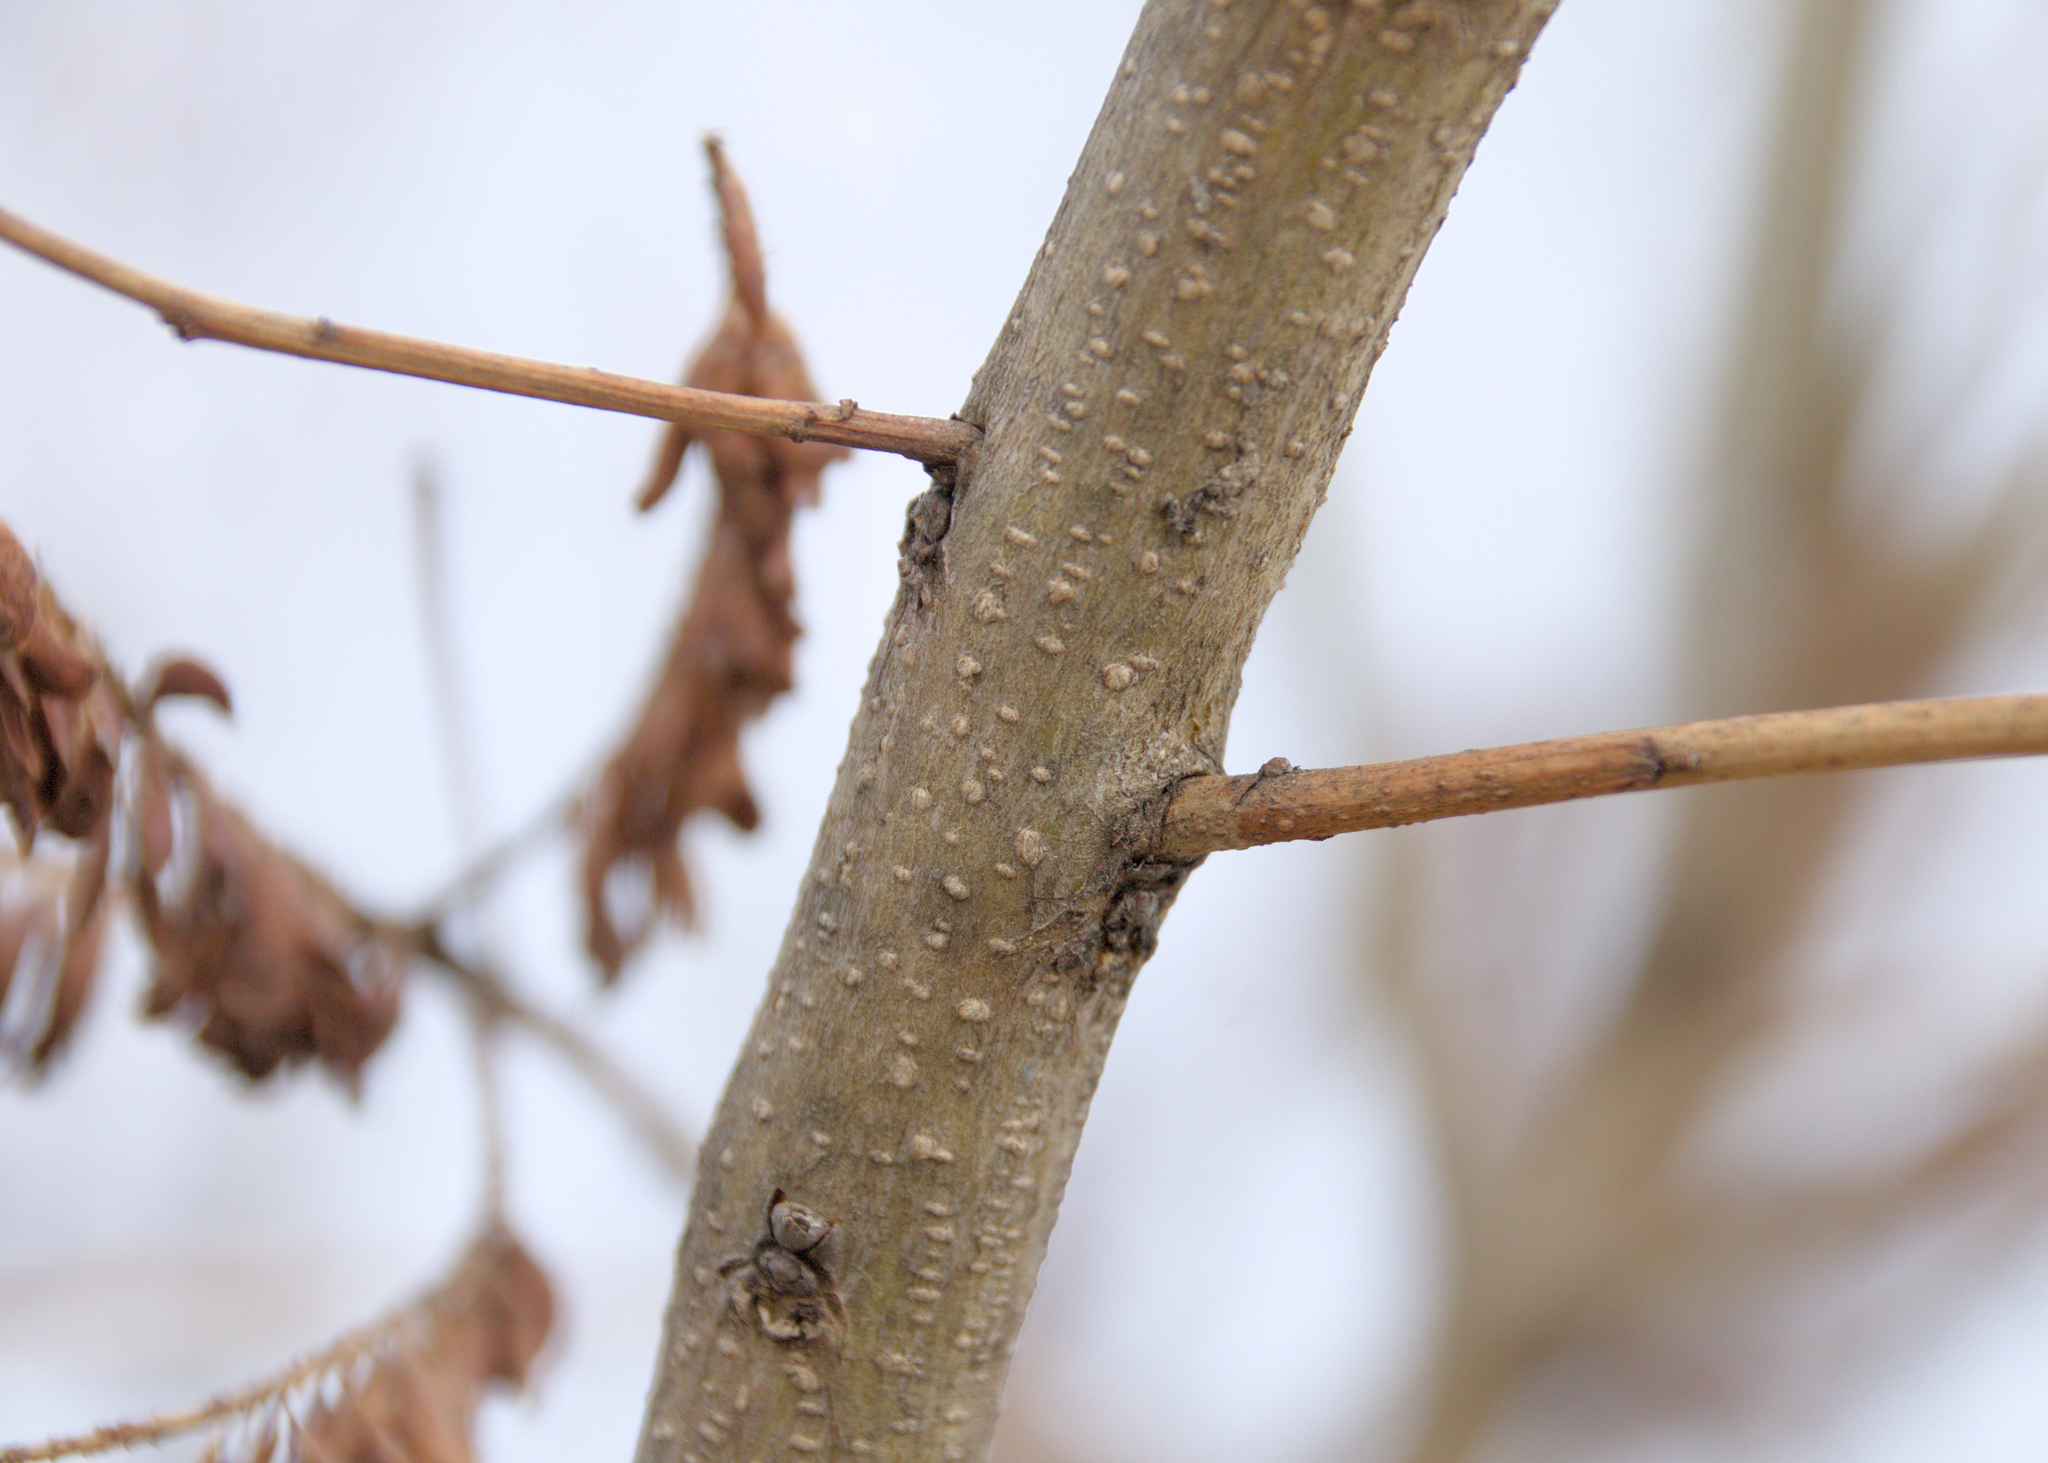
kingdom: Plantae
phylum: Tracheophyta
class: Magnoliopsida
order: Fabales
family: Fabaceae
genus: Amorpha
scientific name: Amorpha fruticosa
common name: False indigo
